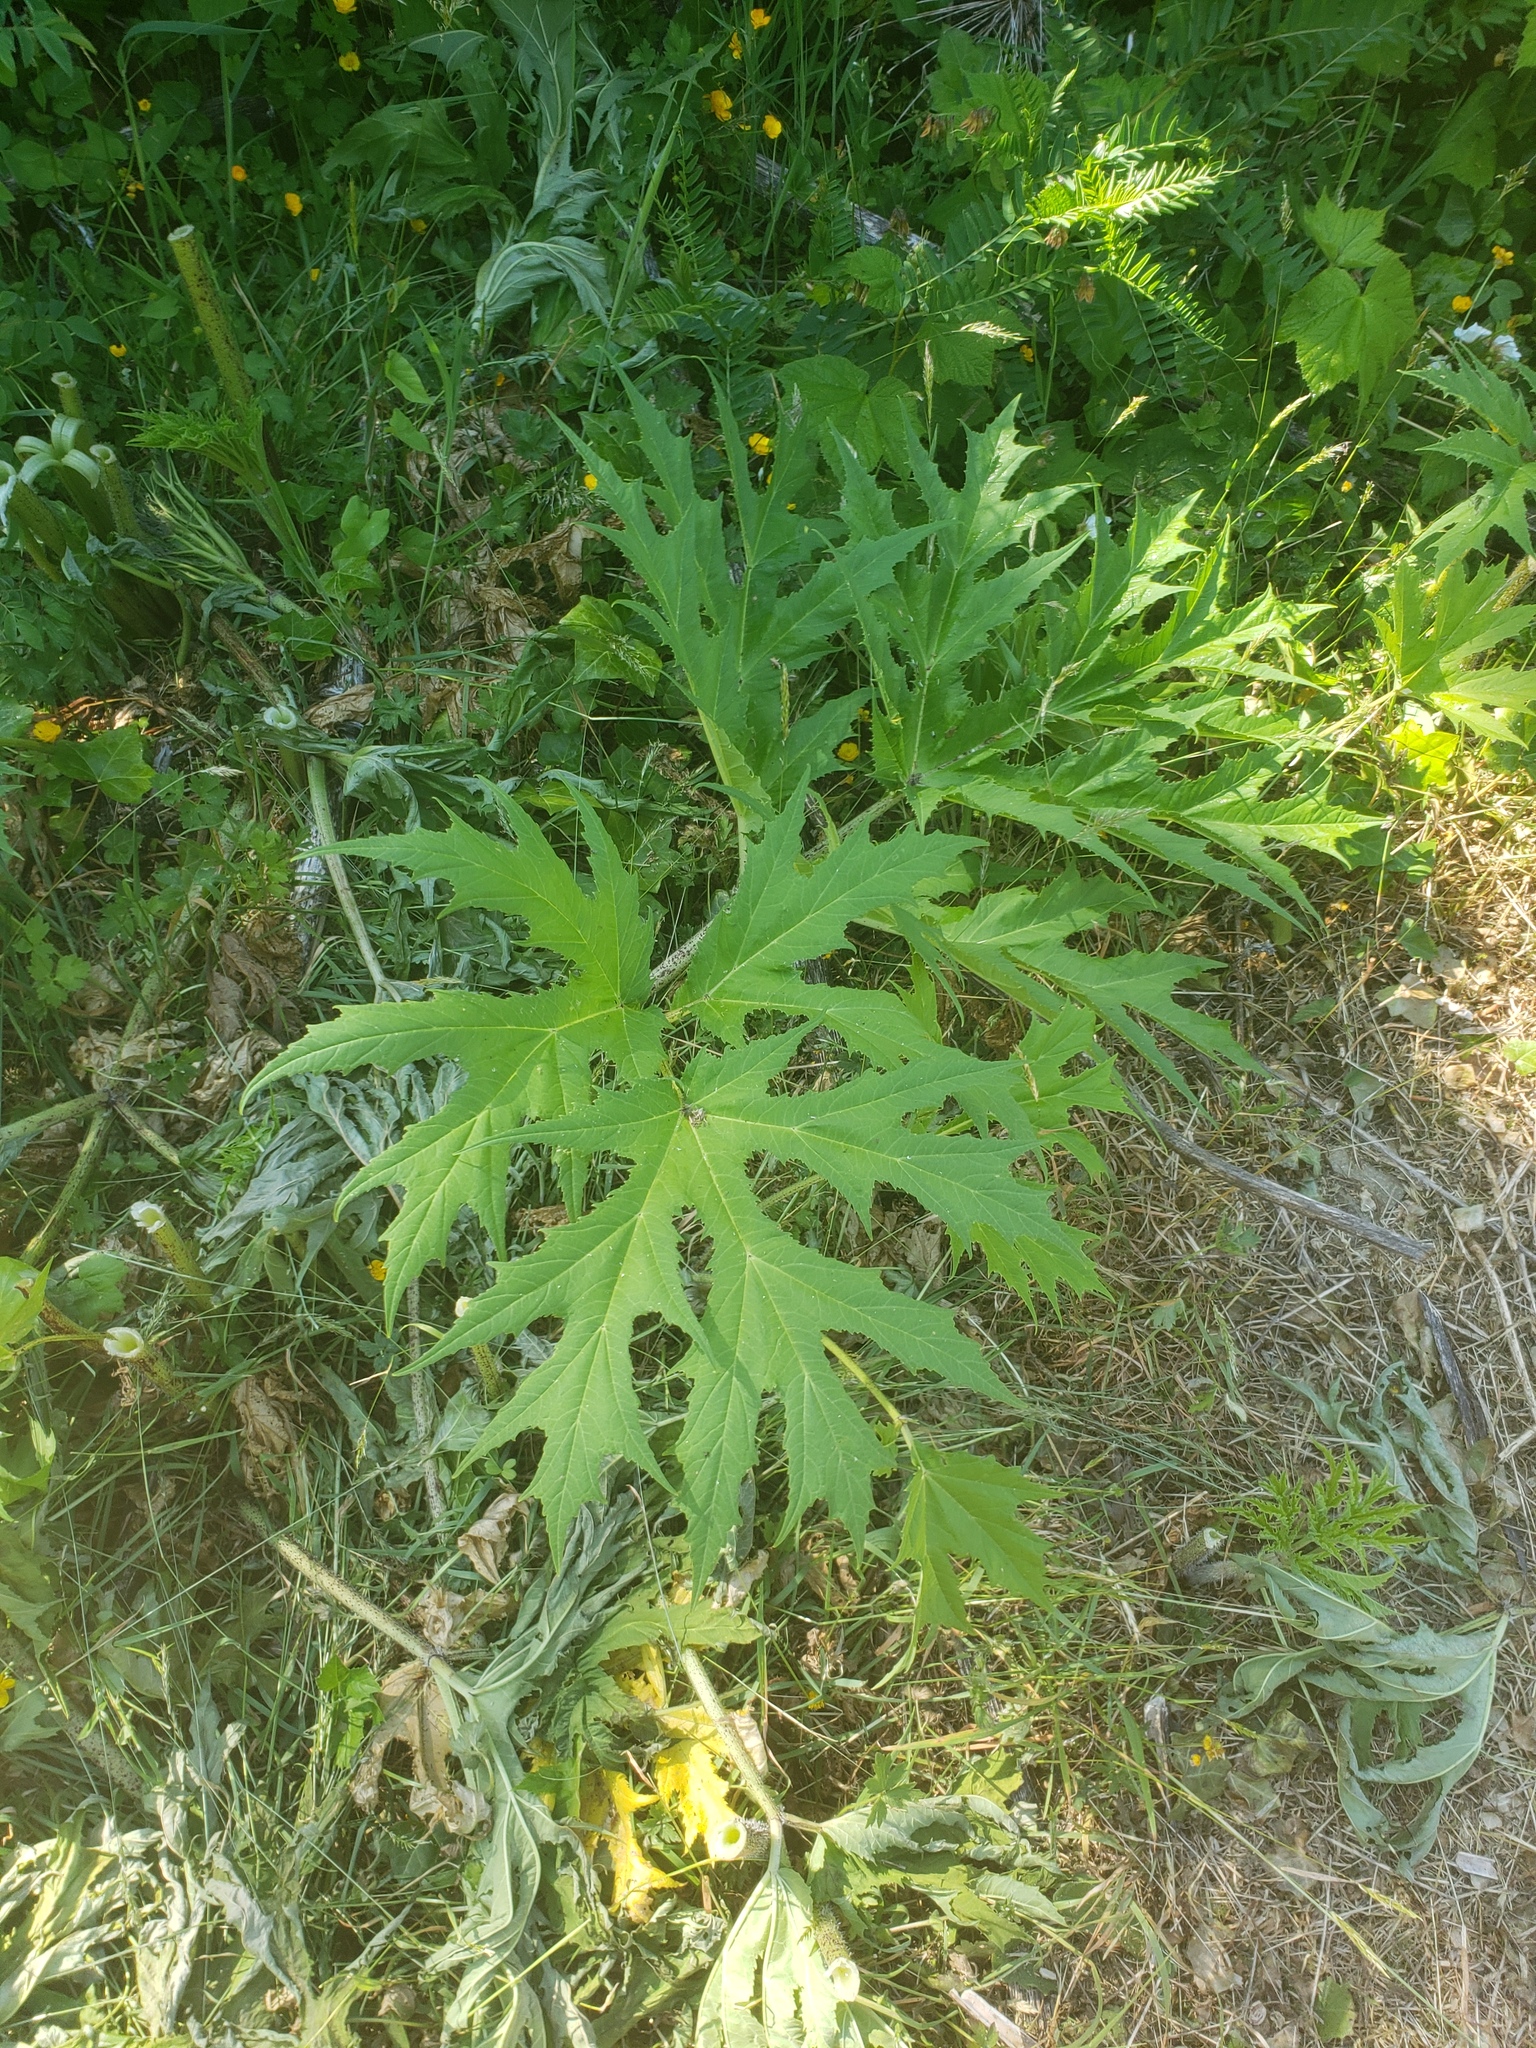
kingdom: Plantae
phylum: Tracheophyta
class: Magnoliopsida
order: Apiales
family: Apiaceae
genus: Heracleum
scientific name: Heracleum mantegazzianum
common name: Giant hogweed
